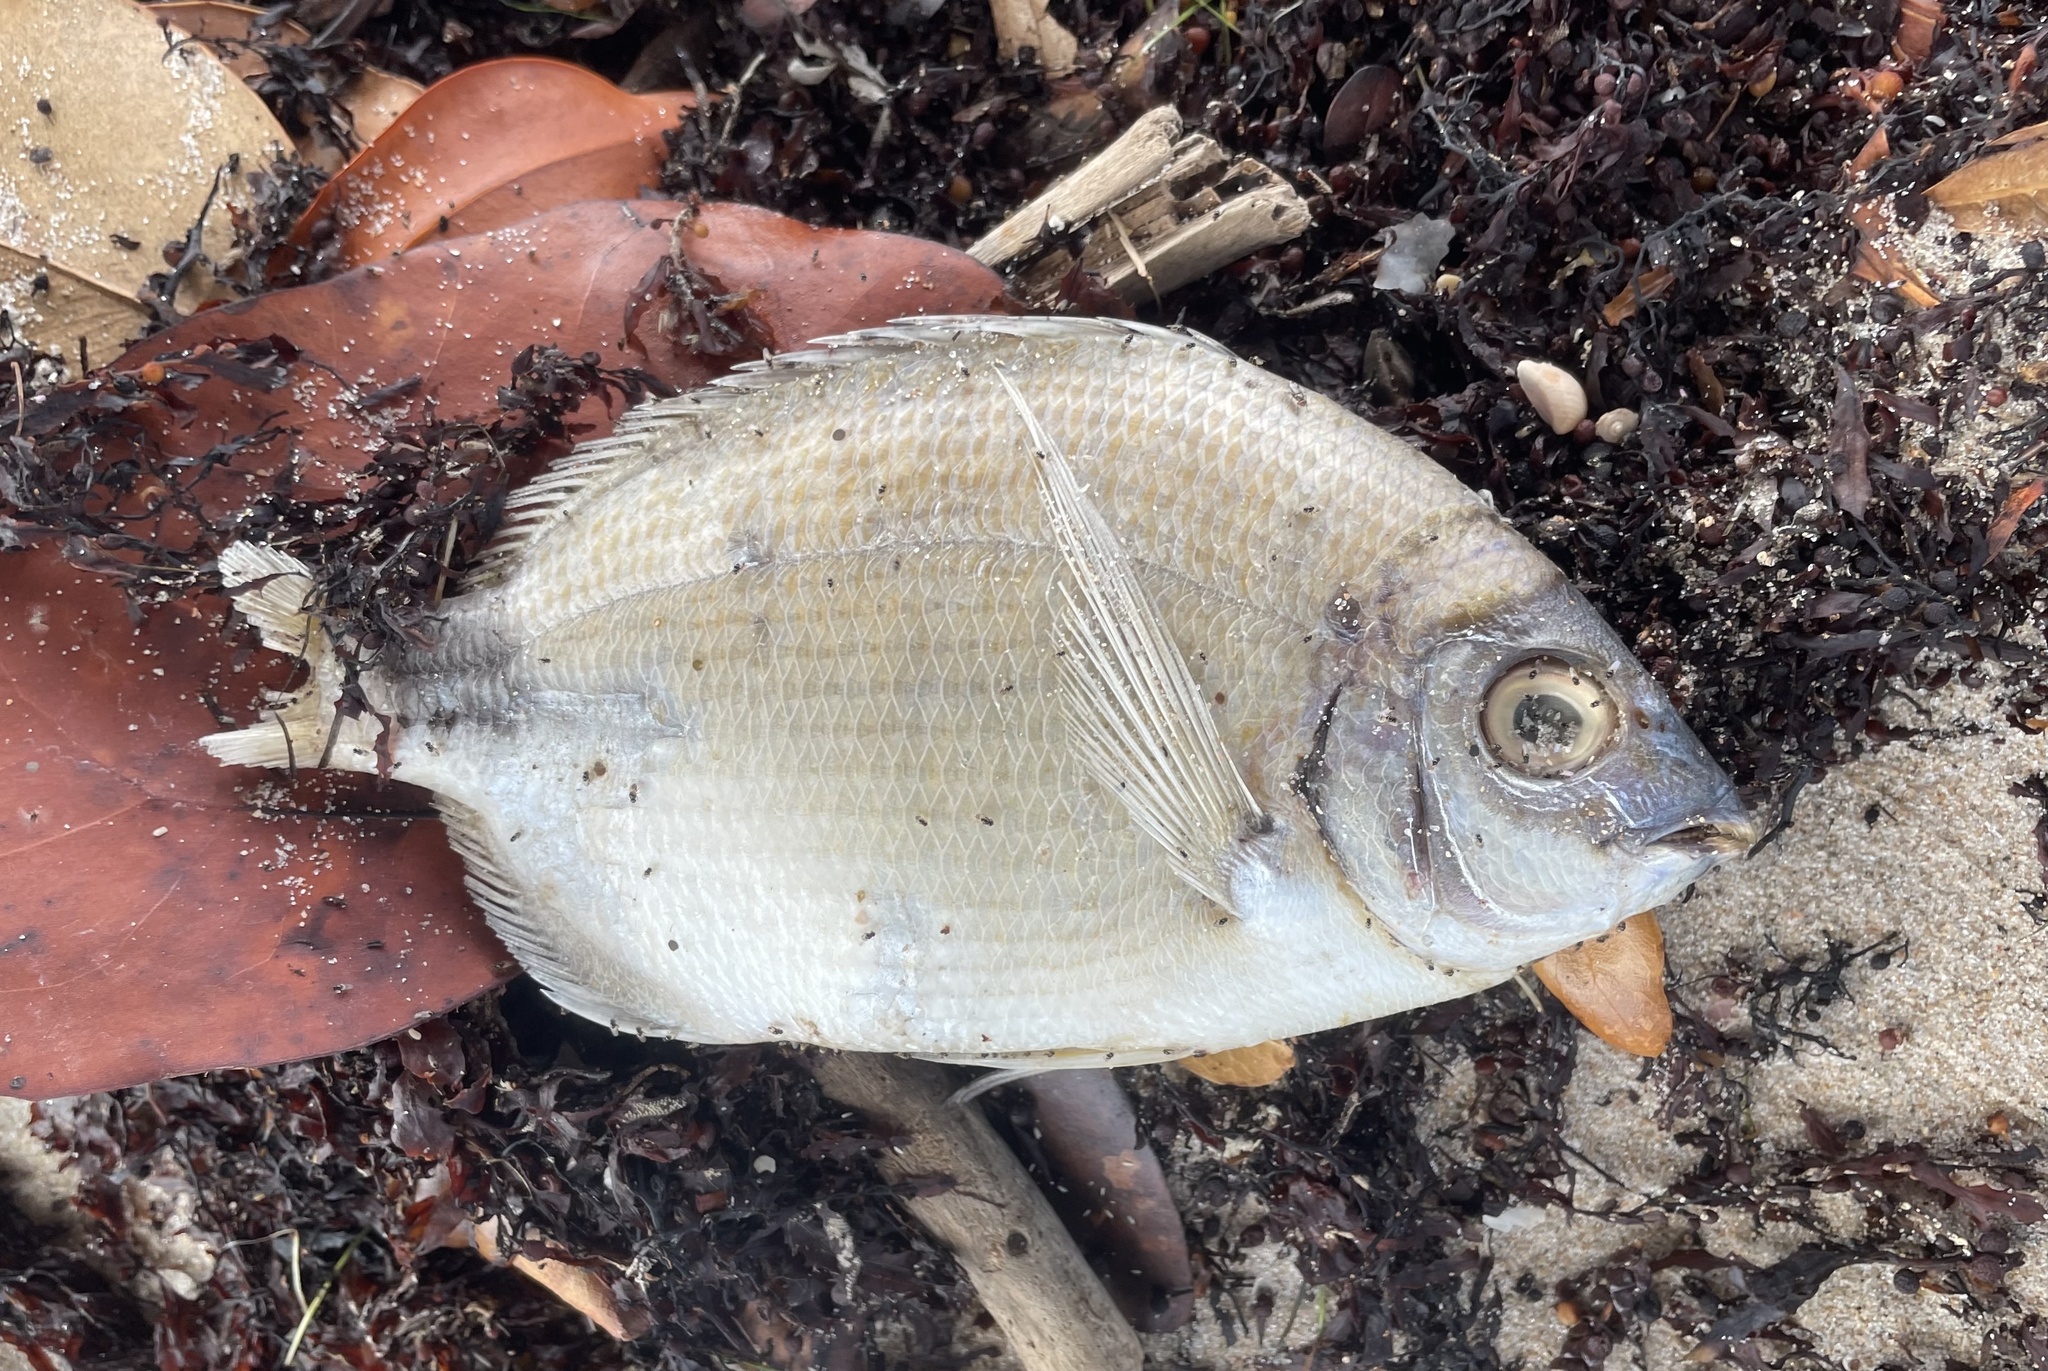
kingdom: Animalia
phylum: Chordata
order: Perciformes
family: Sparidae
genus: Diplodus
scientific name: Diplodus holbrookii
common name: Porgy
